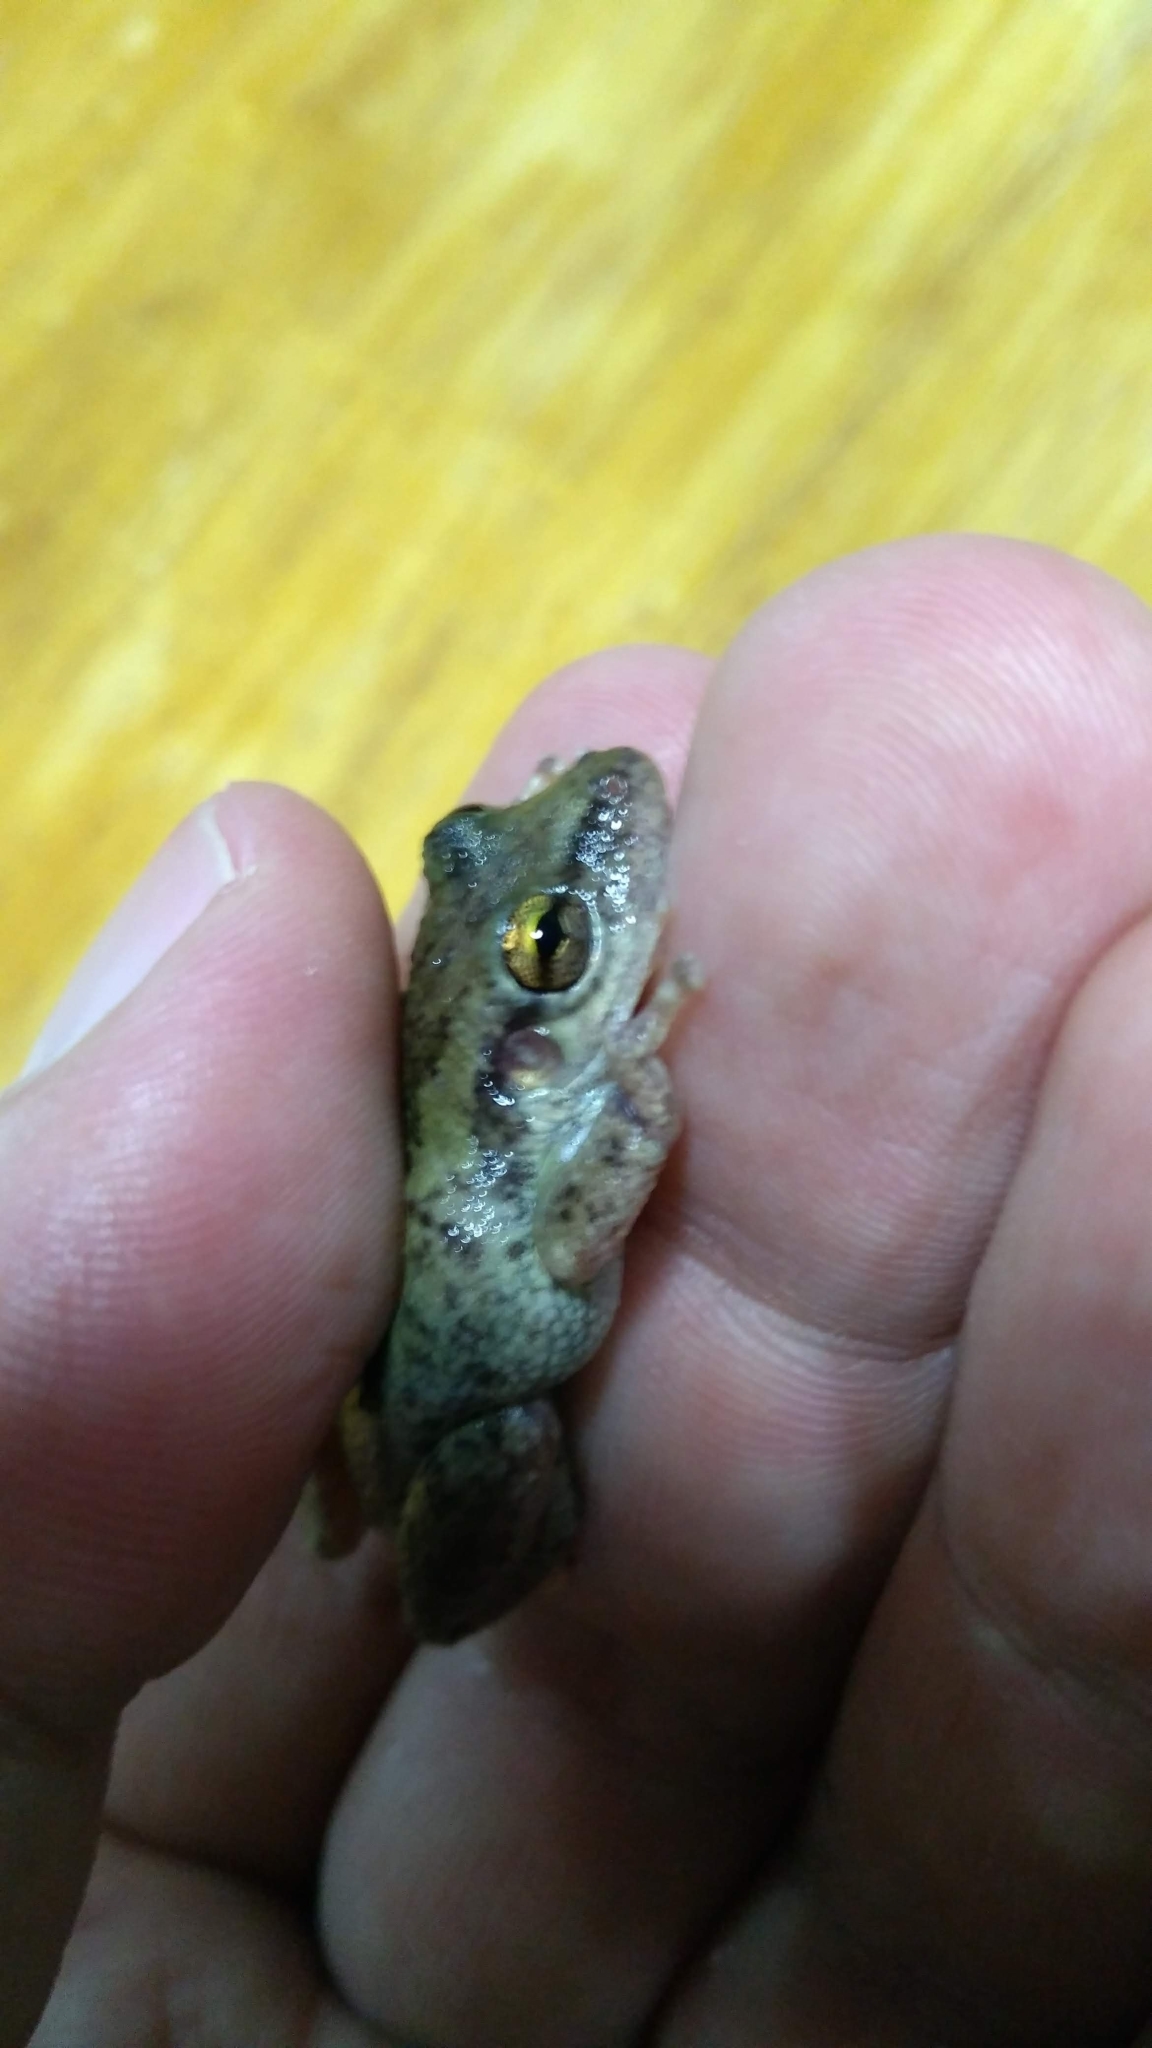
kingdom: Animalia
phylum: Chordata
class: Amphibia
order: Anura
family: Hylidae
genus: Scinax
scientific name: Scinax fuscovarius
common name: Fuscous-blotched treefrog
